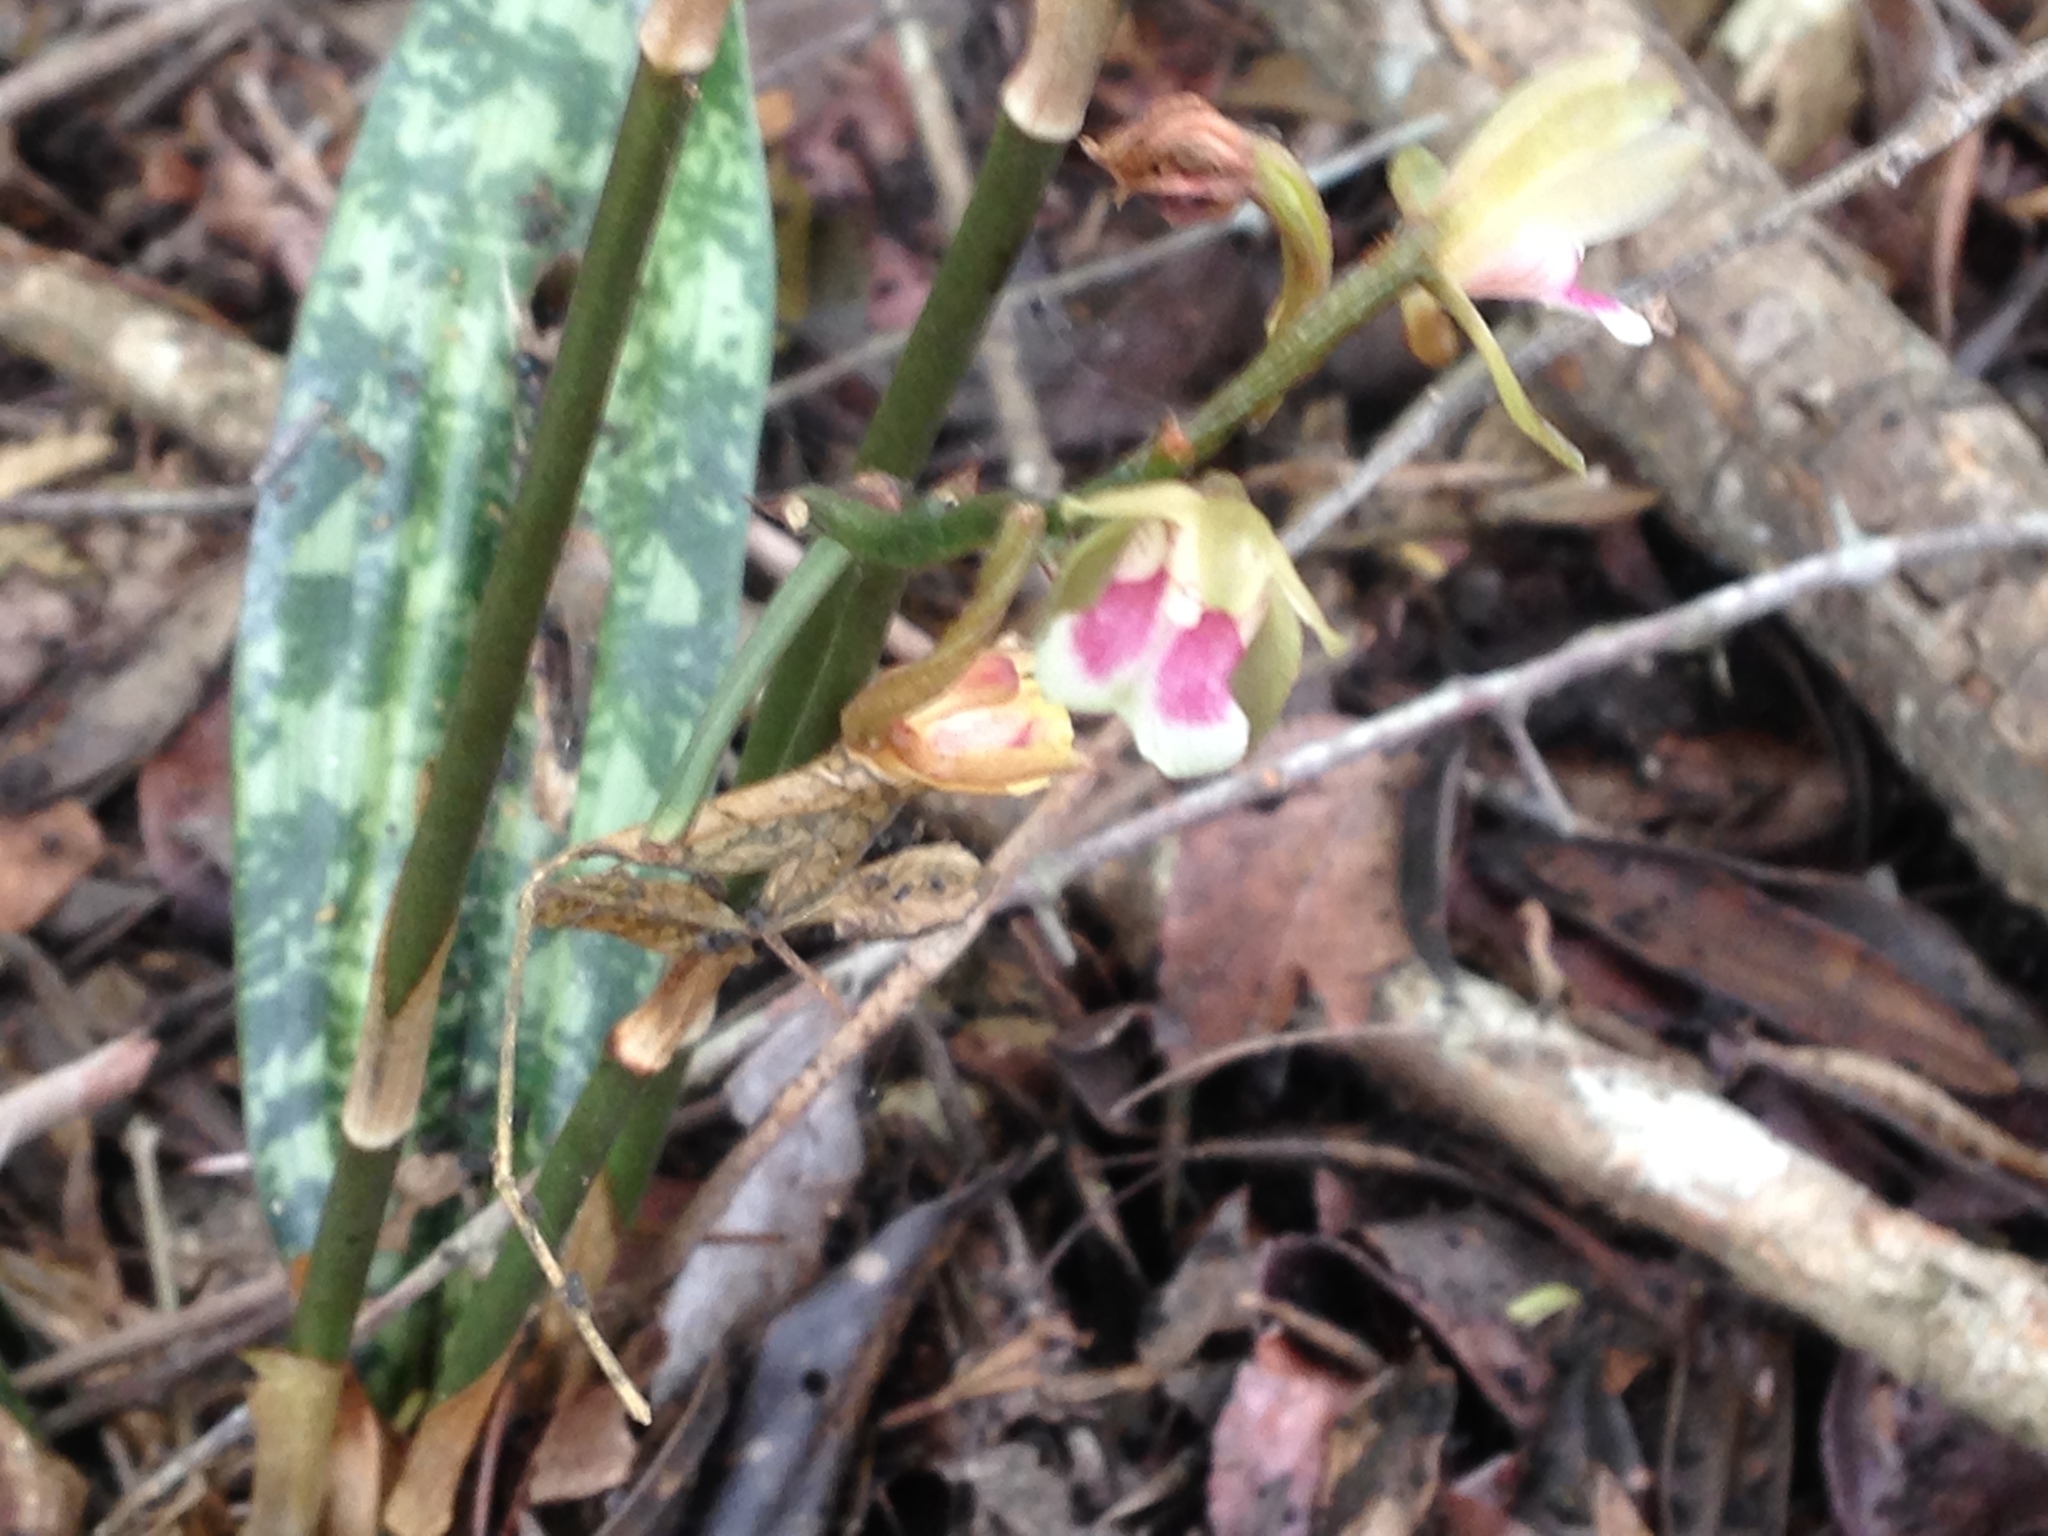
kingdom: Plantae
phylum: Tracheophyta
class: Liliopsida
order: Asparagales
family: Orchidaceae
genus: Eulophia
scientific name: Eulophia maculata
